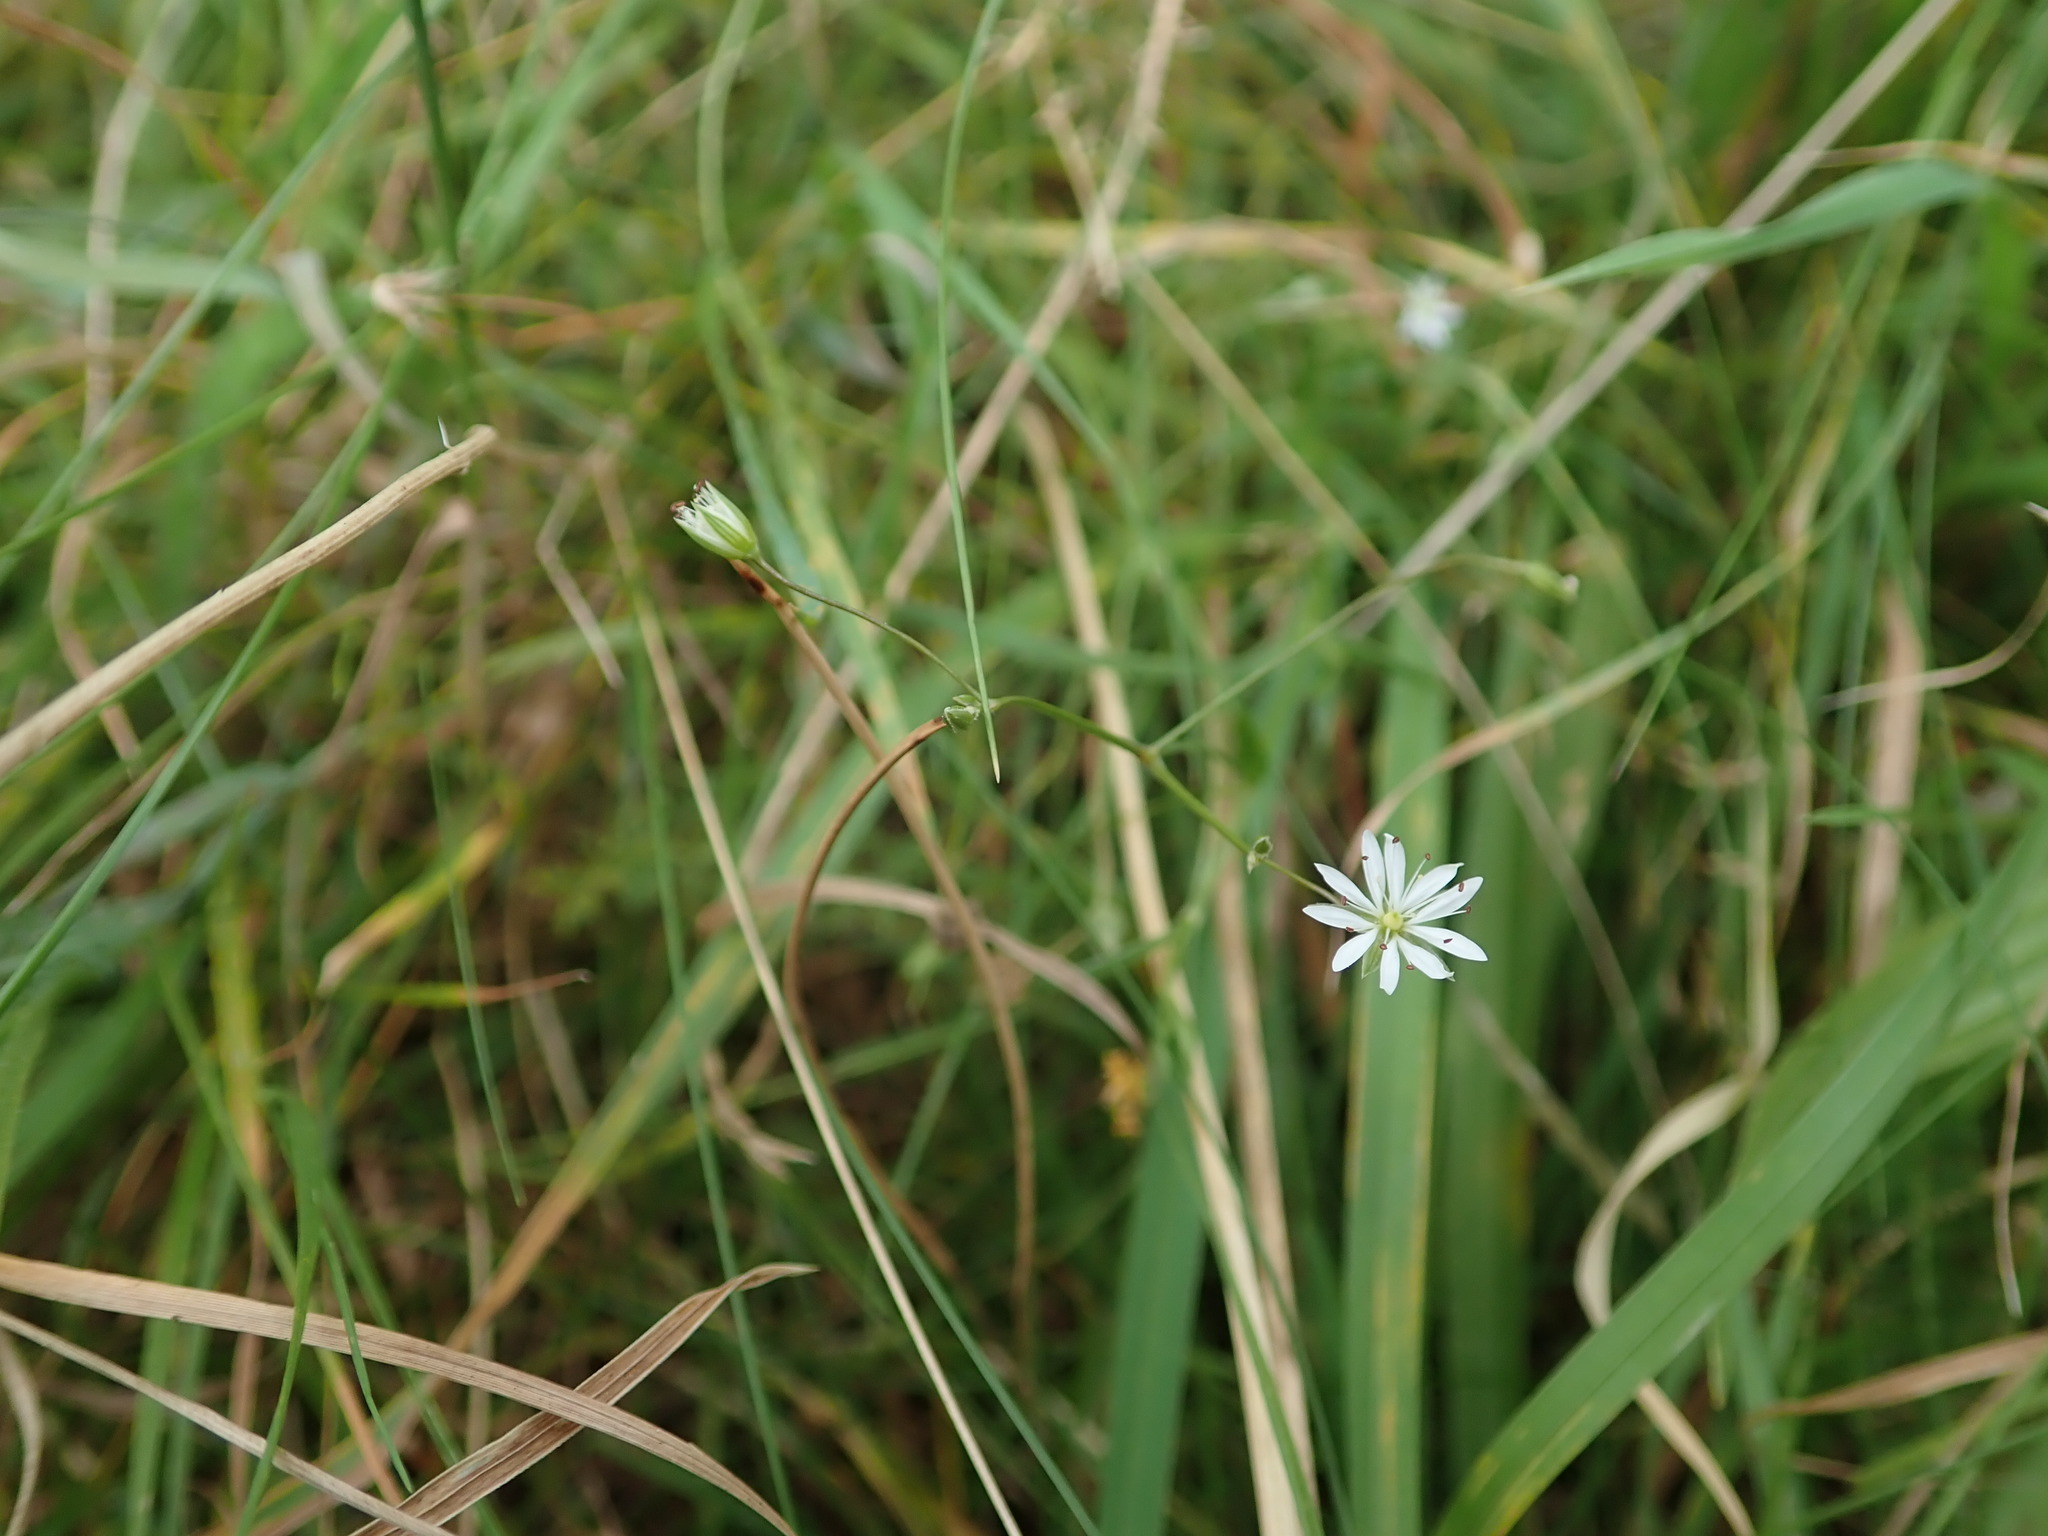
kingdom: Plantae
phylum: Tracheophyta
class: Magnoliopsida
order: Caryophyllales
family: Caryophyllaceae
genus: Stellaria
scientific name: Stellaria graminea
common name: Grass-like starwort
